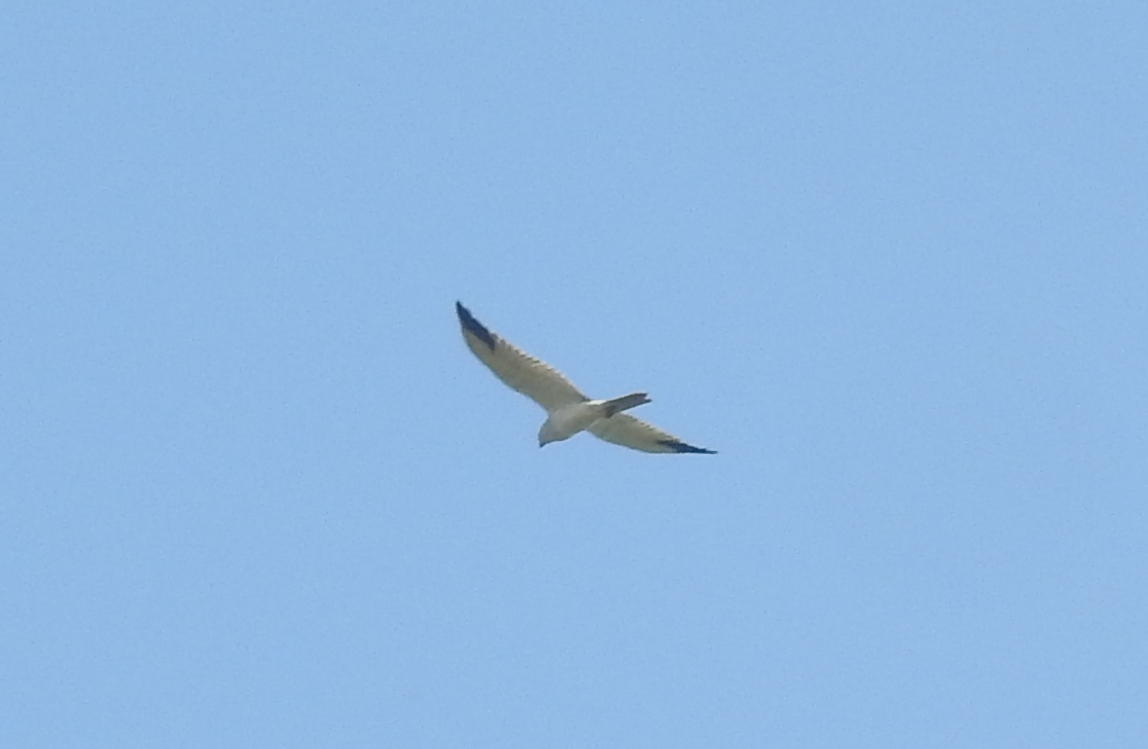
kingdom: Animalia
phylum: Chordata
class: Aves
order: Accipitriformes
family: Accipitridae
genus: Circus
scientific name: Circus macrourus
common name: Pallid harrier
